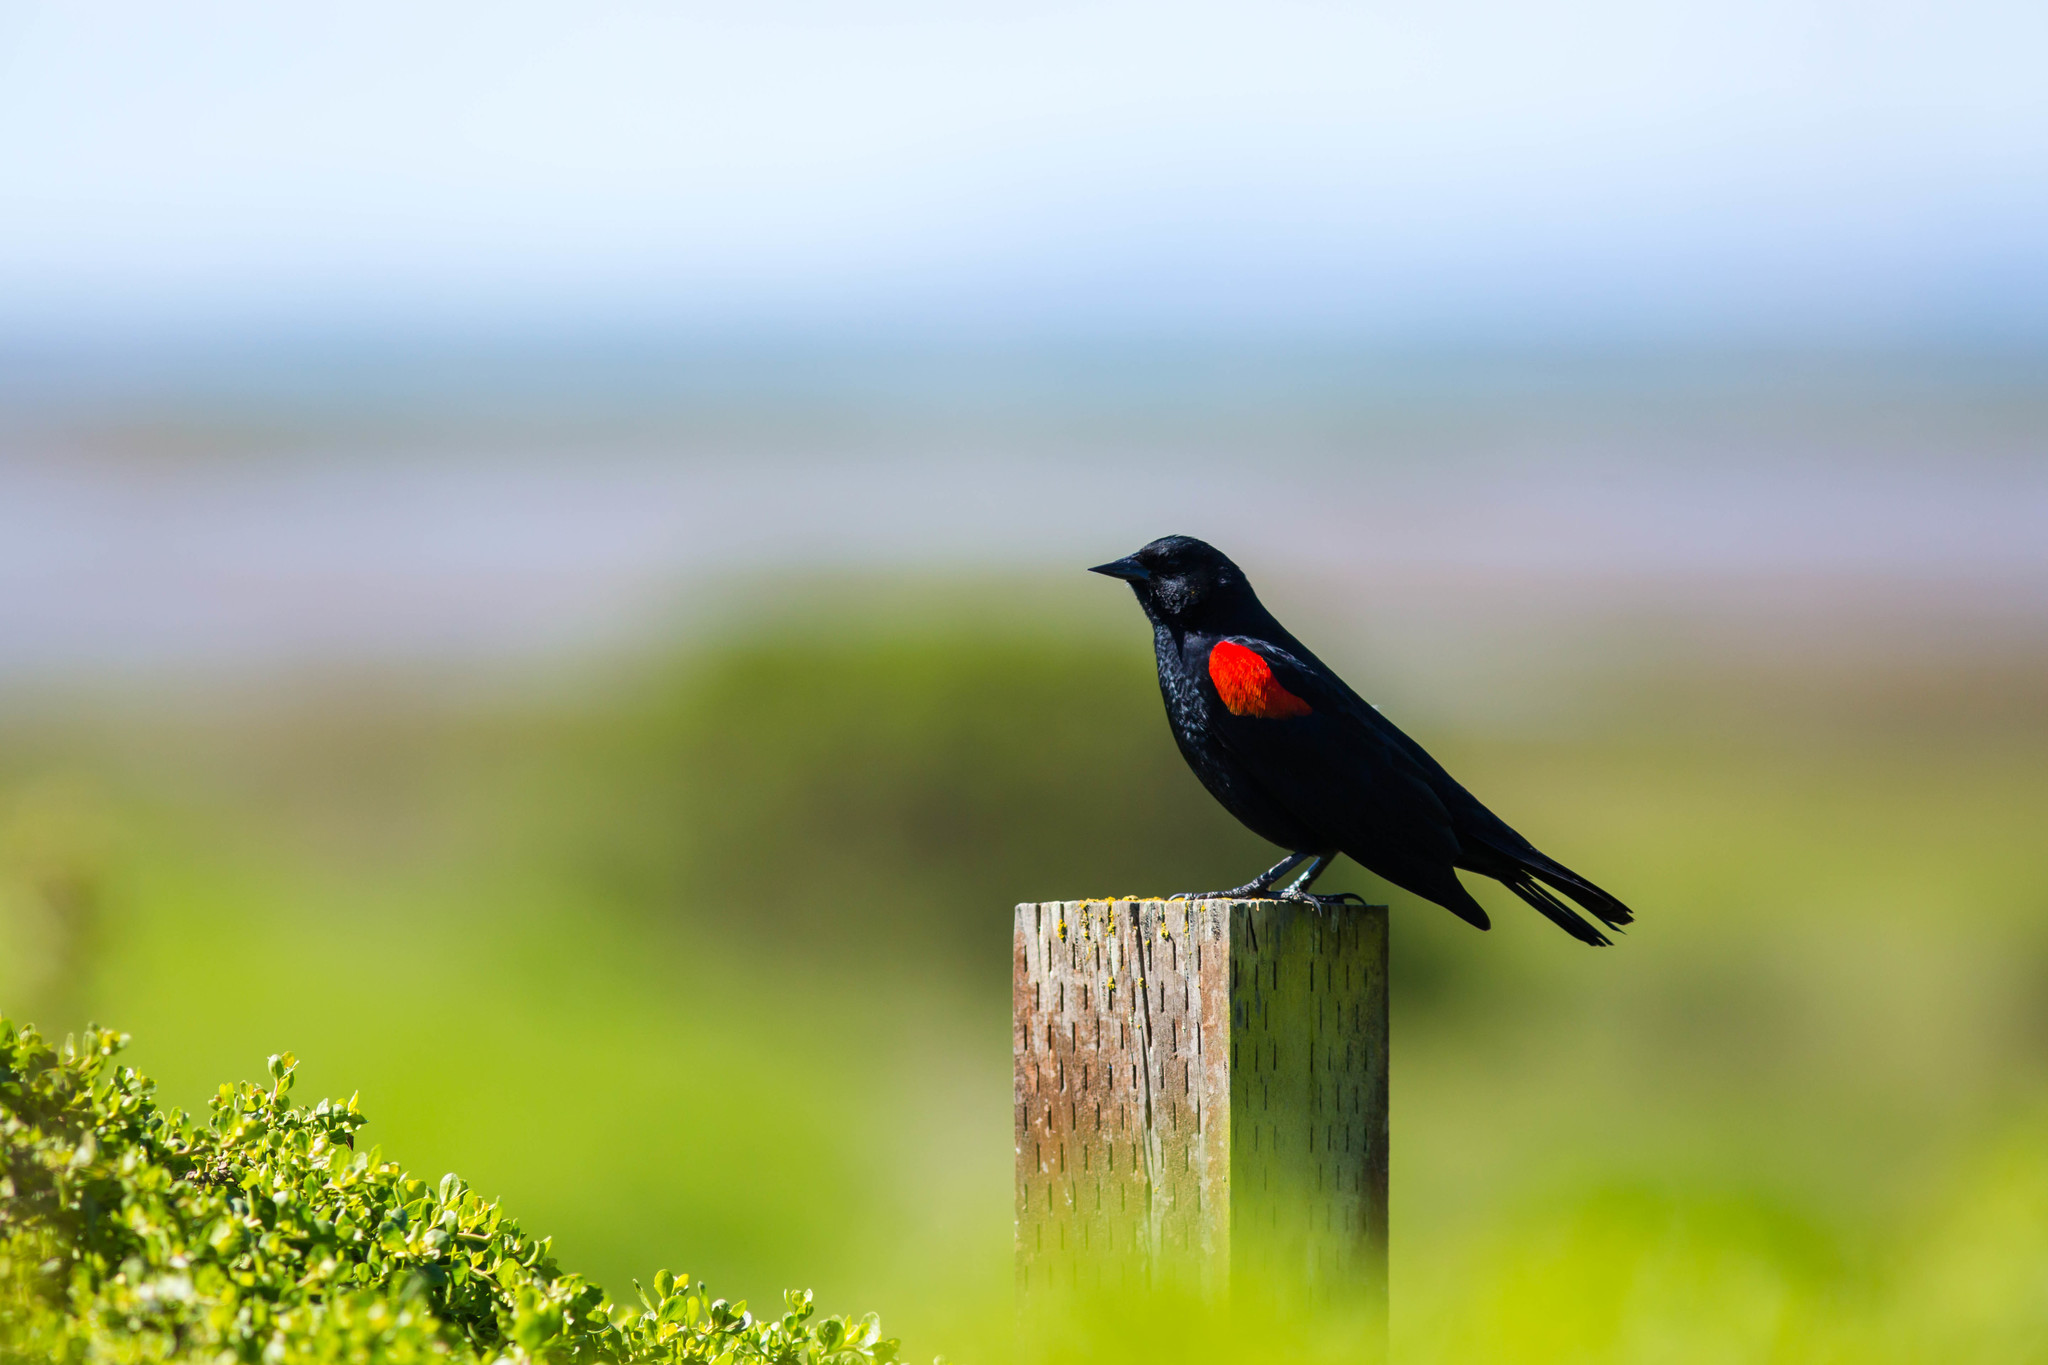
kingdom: Animalia
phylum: Chordata
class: Aves
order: Passeriformes
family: Icteridae
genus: Agelaius
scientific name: Agelaius phoeniceus
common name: Red-winged blackbird
